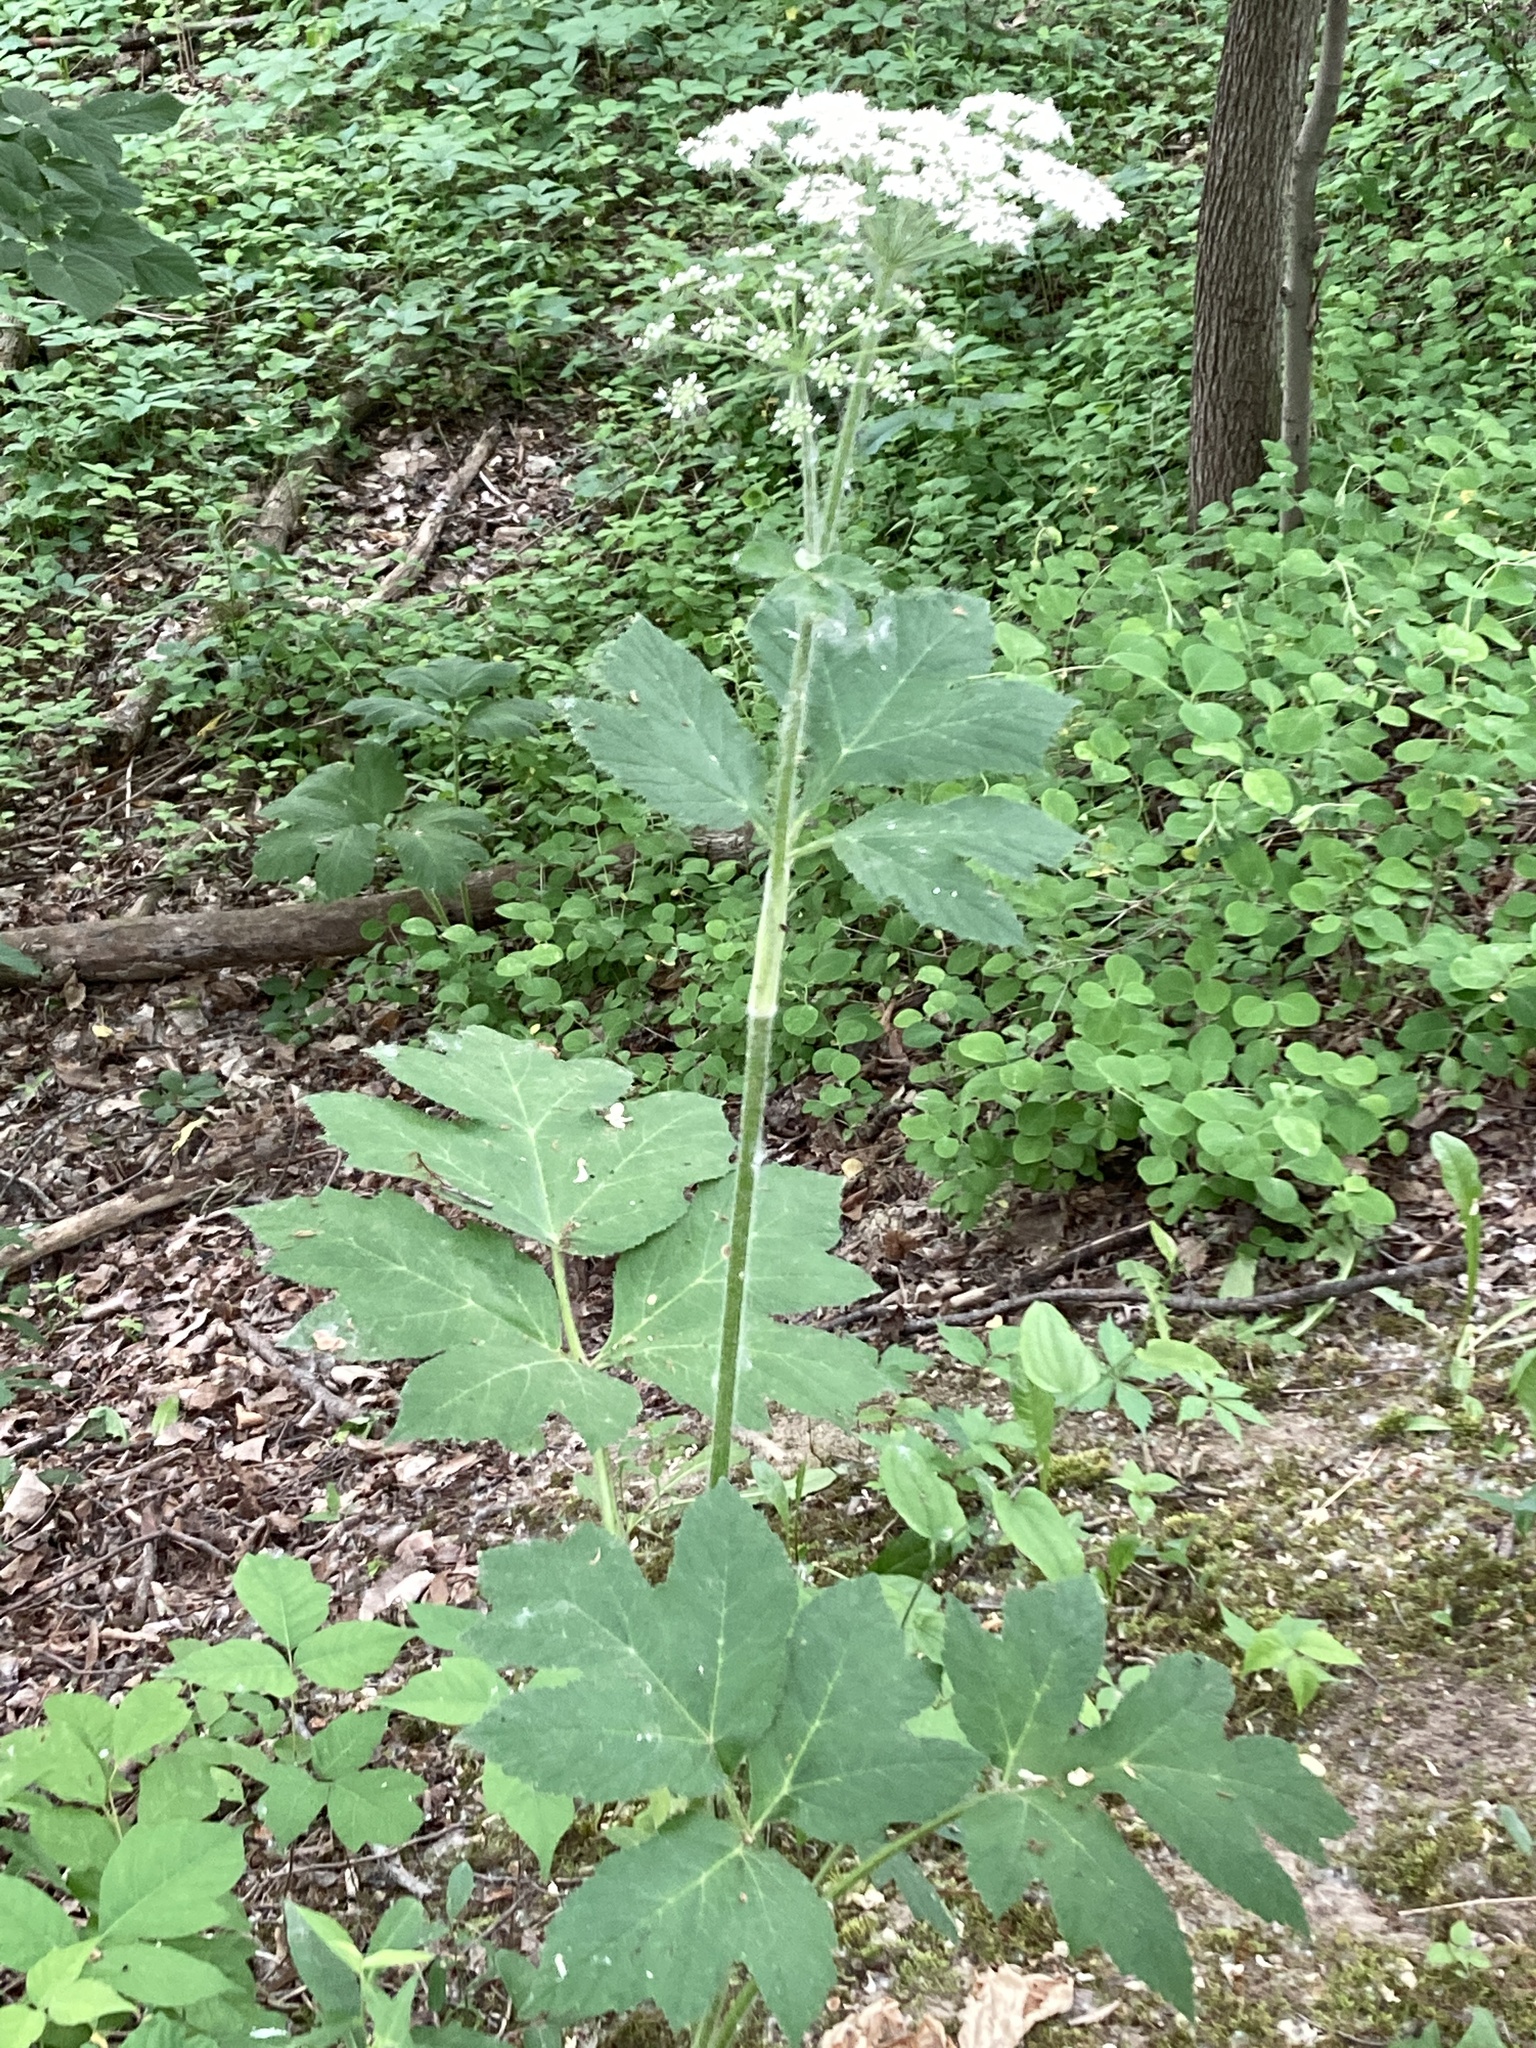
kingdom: Plantae
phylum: Tracheophyta
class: Magnoliopsida
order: Apiales
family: Apiaceae
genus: Heracleum
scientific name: Heracleum maximum
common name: American cow parsnip
